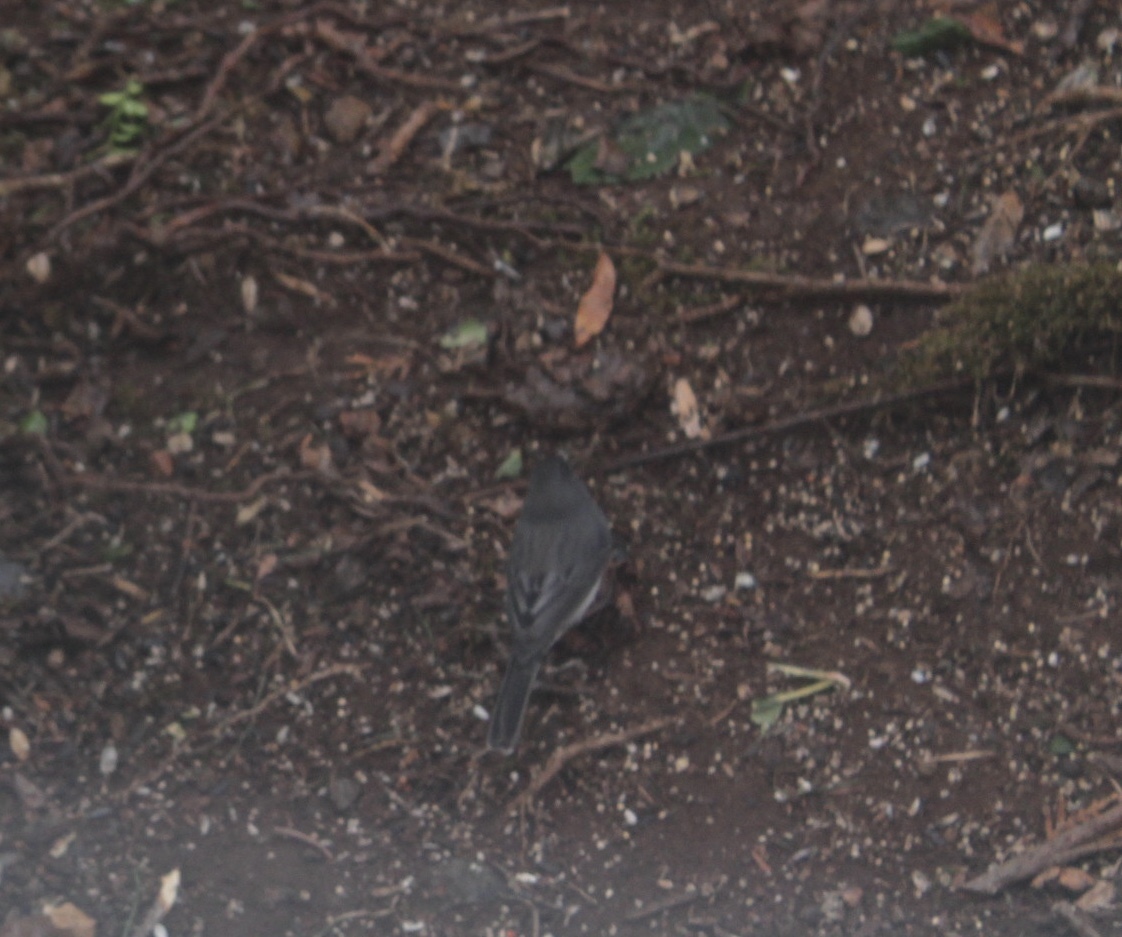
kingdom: Animalia
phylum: Chordata
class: Aves
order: Passeriformes
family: Passerellidae
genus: Junco
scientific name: Junco hyemalis
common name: Dark-eyed junco
